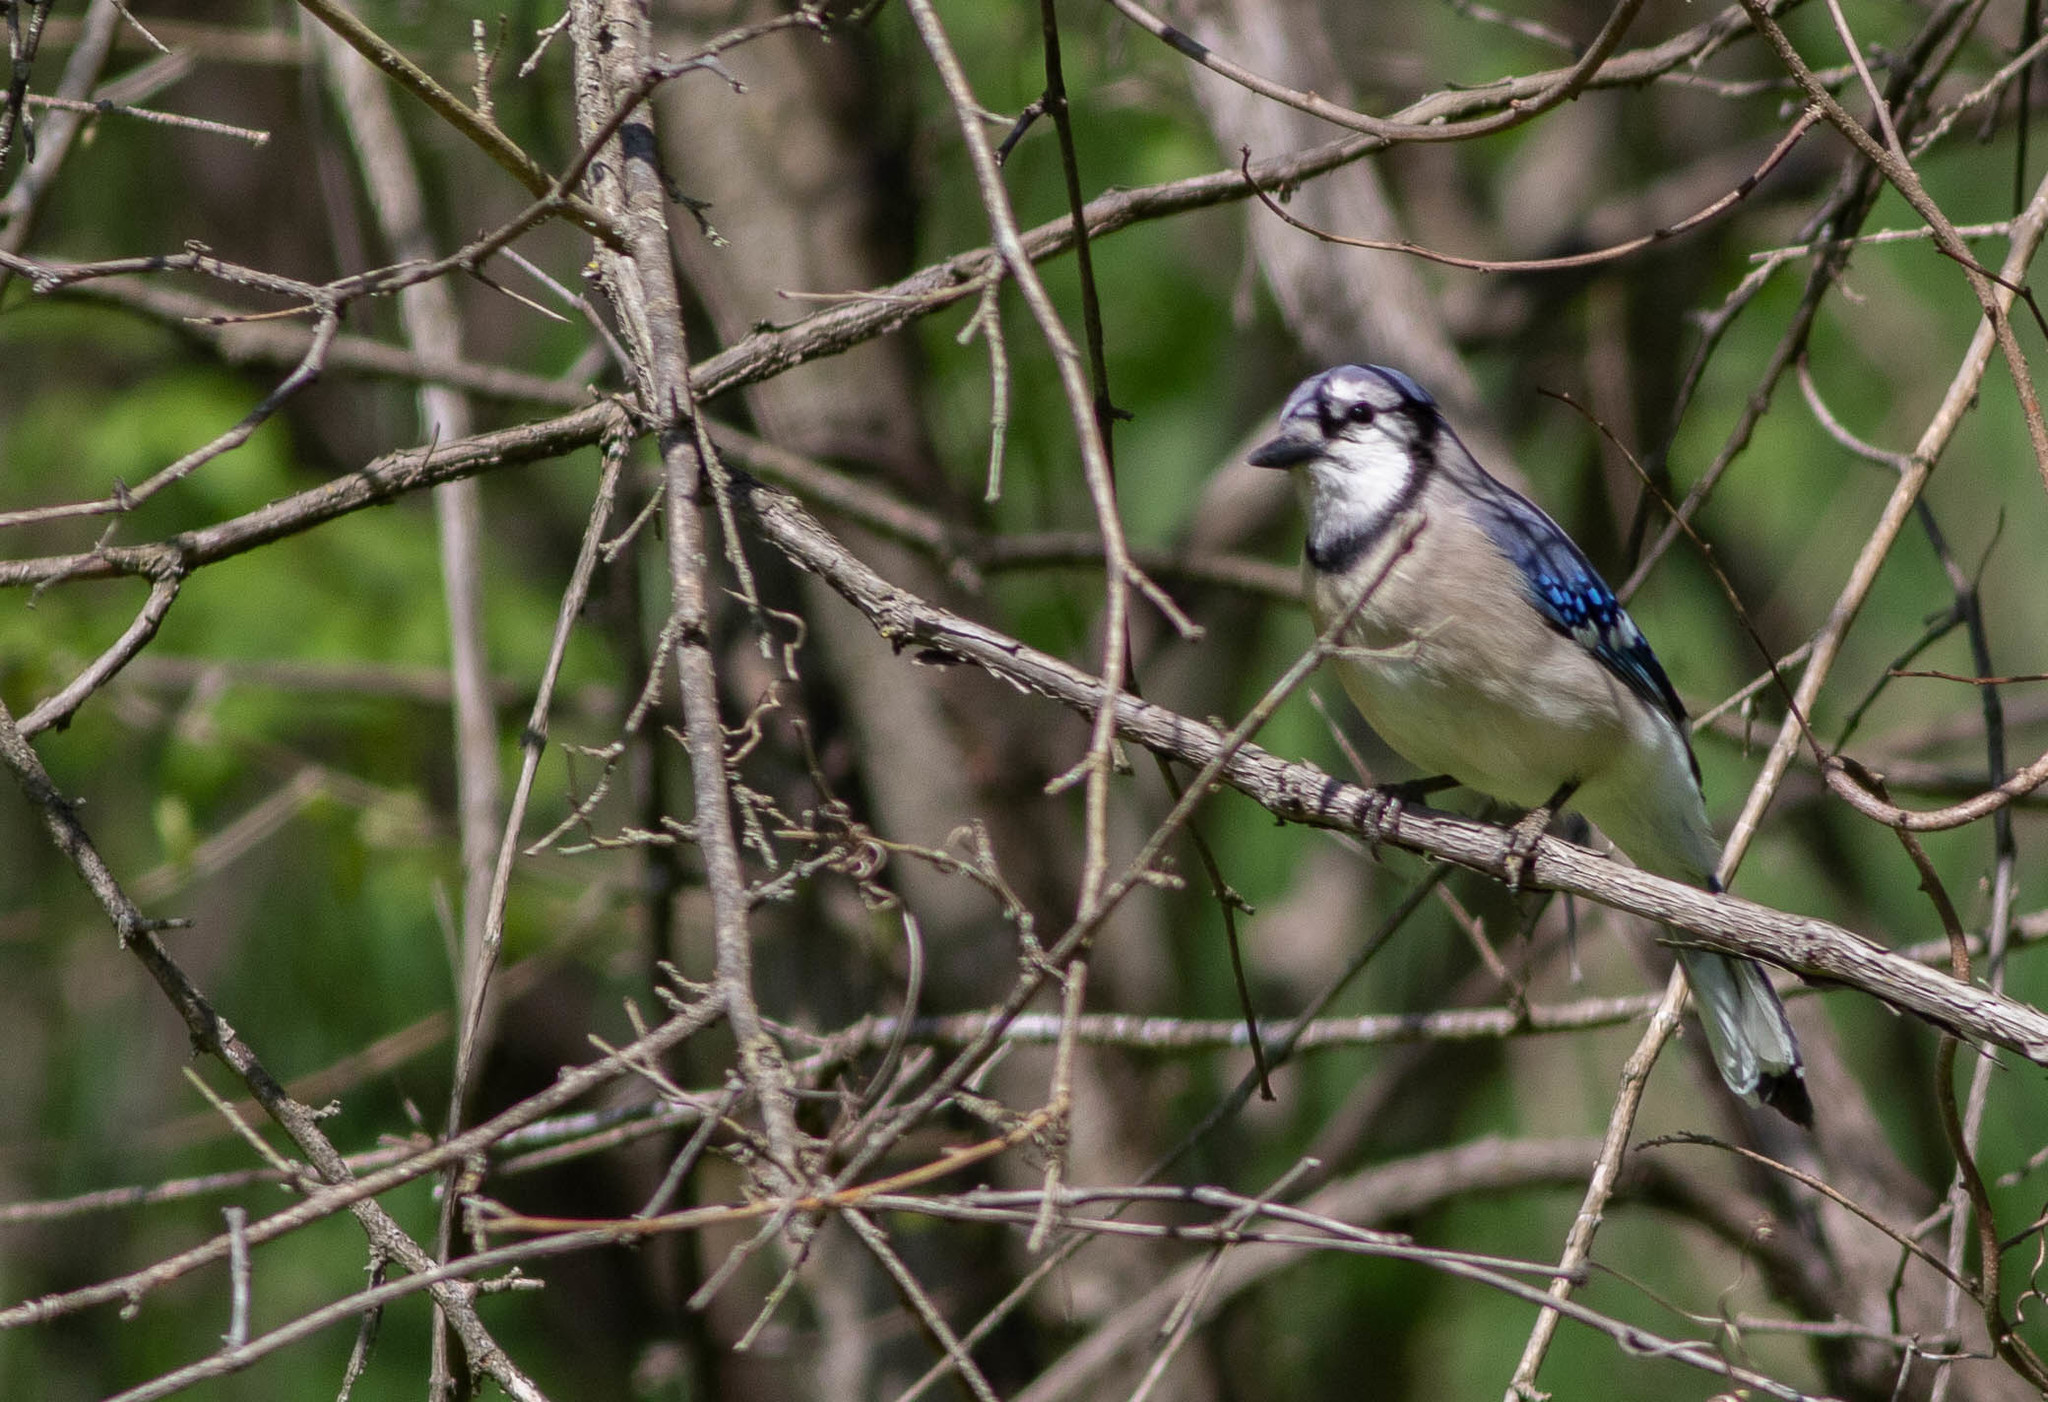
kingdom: Animalia
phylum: Chordata
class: Aves
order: Passeriformes
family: Corvidae
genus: Cyanocitta
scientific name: Cyanocitta cristata
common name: Blue jay
